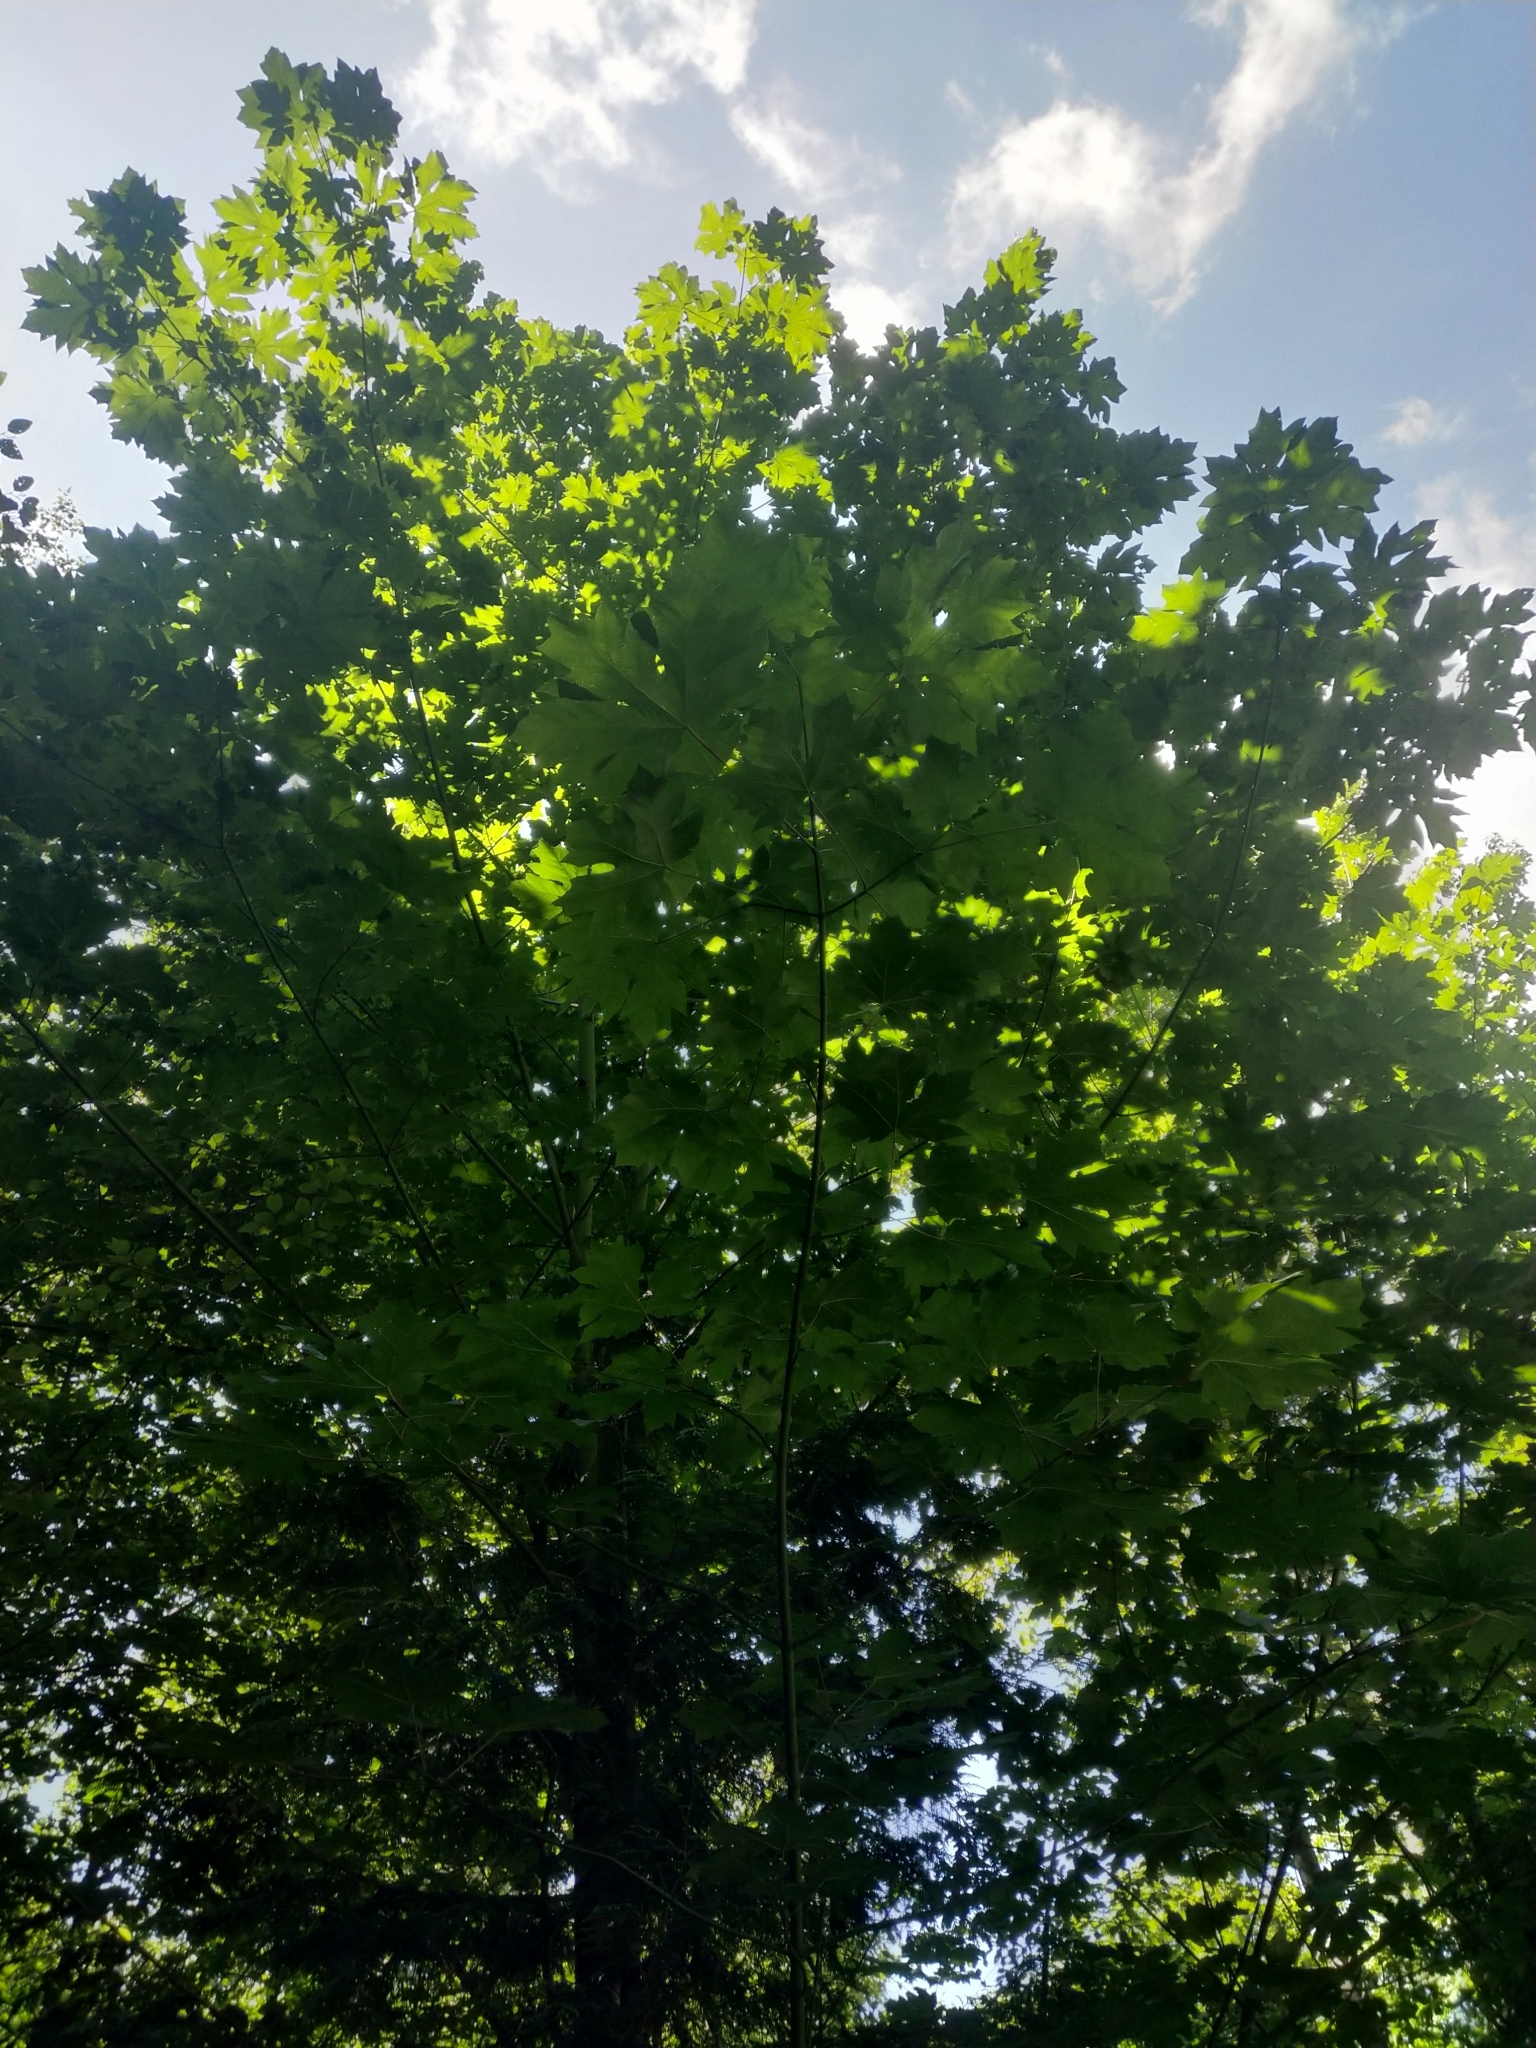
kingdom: Plantae
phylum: Tracheophyta
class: Magnoliopsida
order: Sapindales
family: Sapindaceae
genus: Acer
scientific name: Acer macrophyllum
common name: Oregon maple
